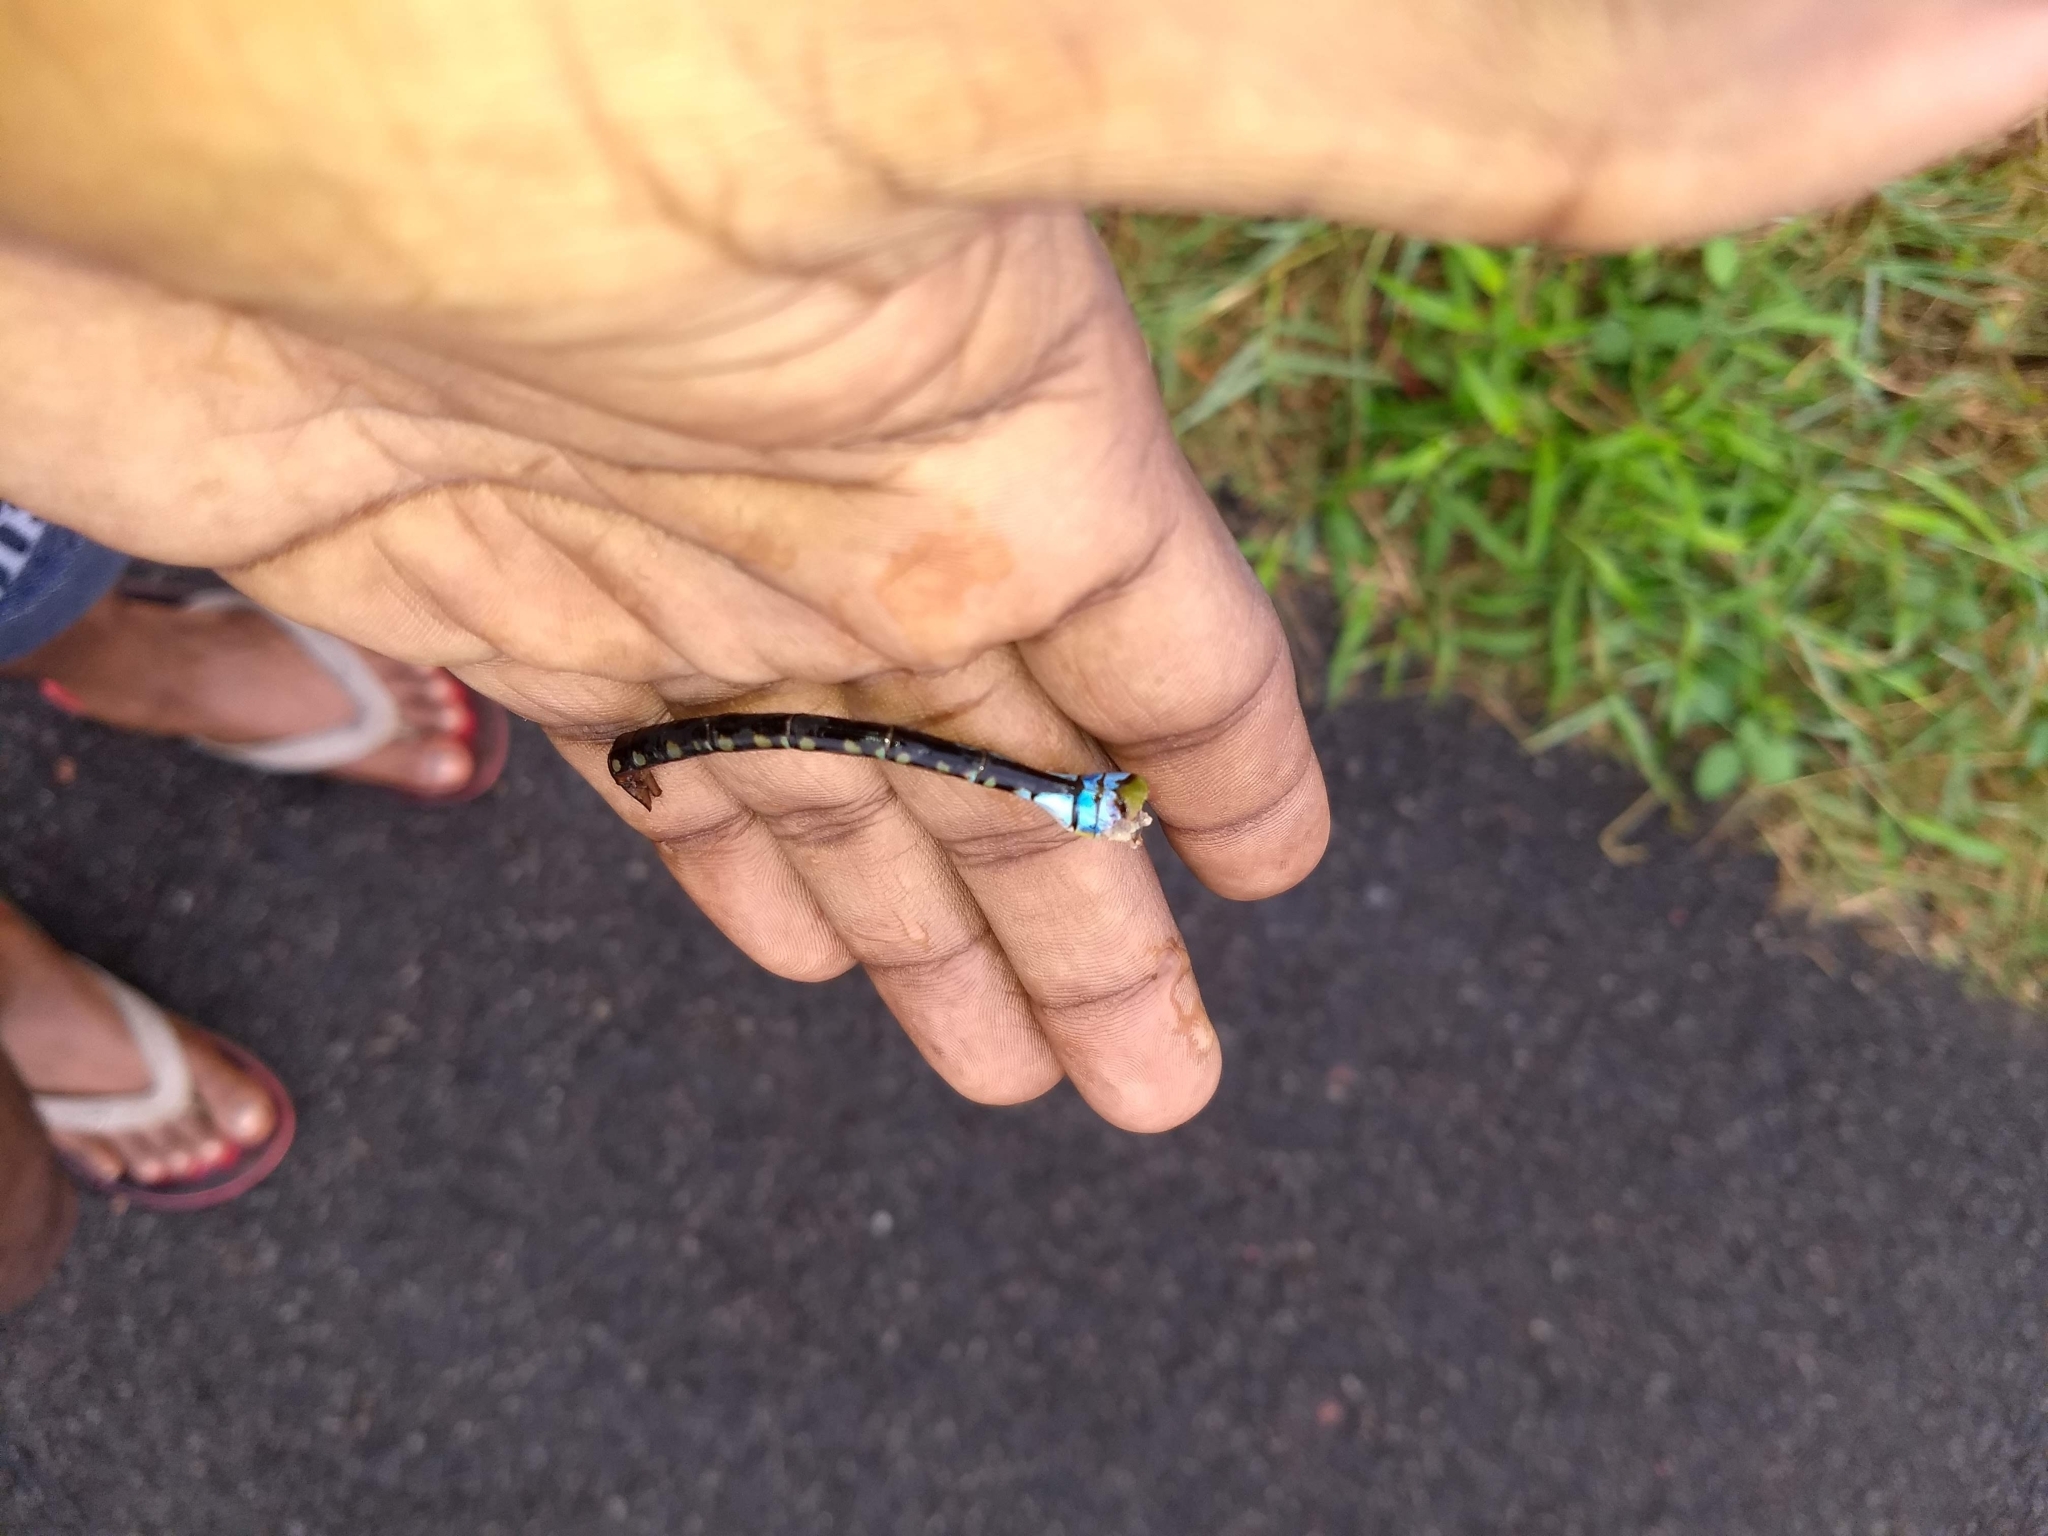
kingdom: Animalia
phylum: Arthropoda
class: Insecta
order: Odonata
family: Aeshnidae
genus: Anax
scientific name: Anax guttatus
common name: Emperor
